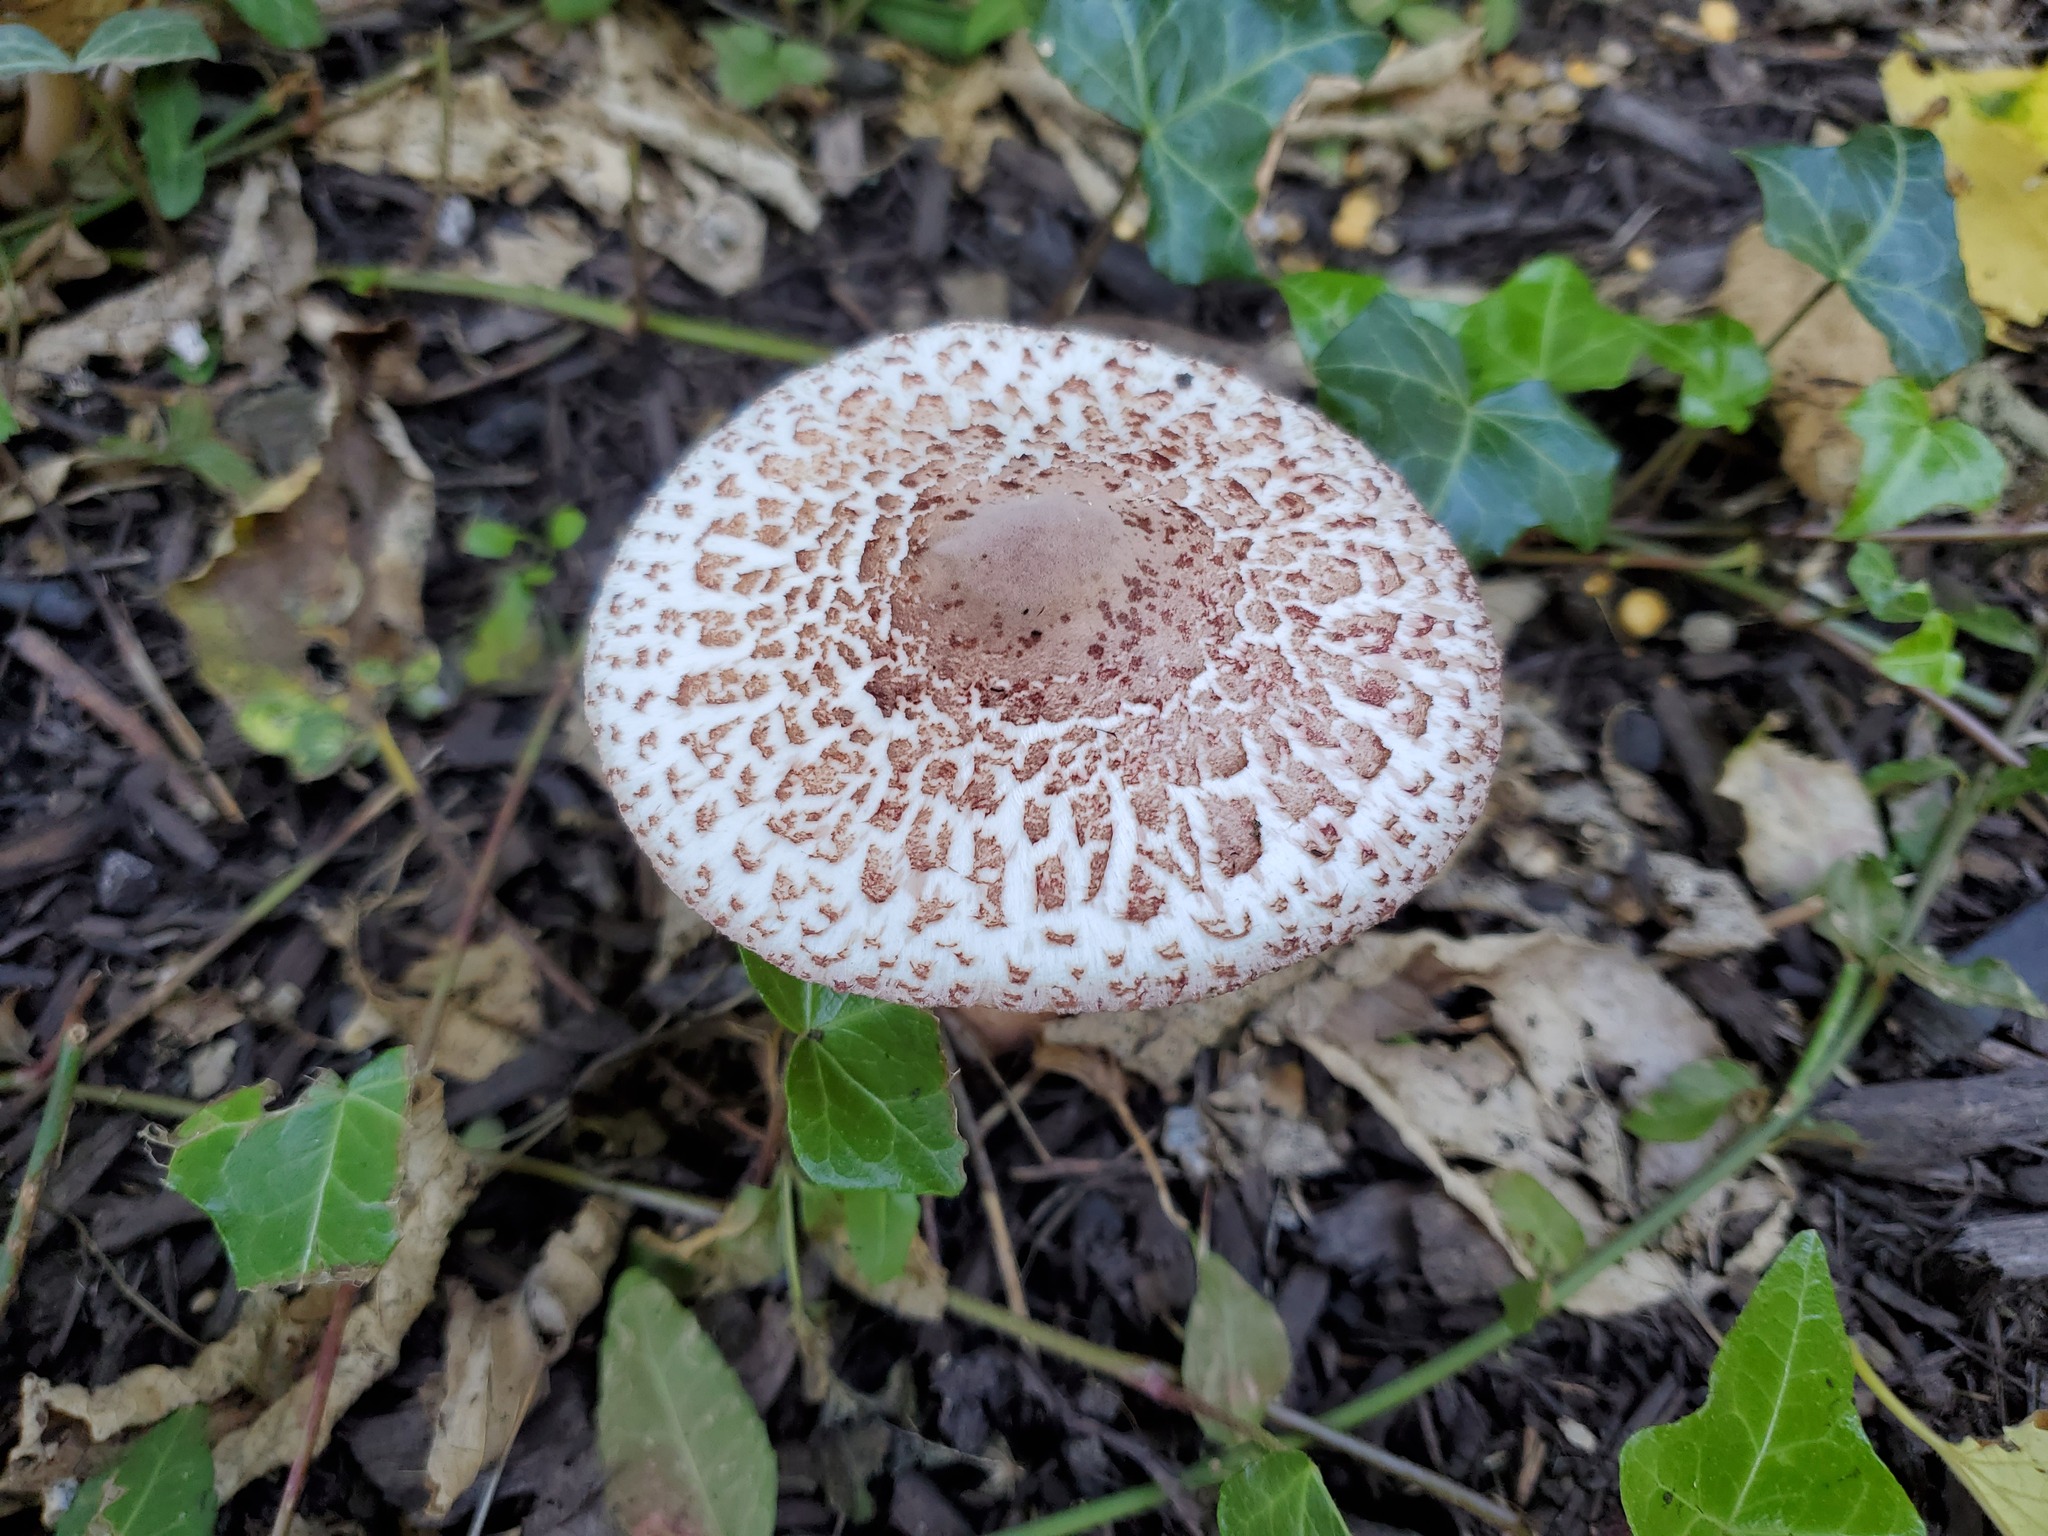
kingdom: Fungi
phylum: Basidiomycota
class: Agaricomycetes
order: Agaricales
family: Agaricaceae
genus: Leucoagaricus
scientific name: Leucoagaricus americanus
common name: Reddening lepiota
